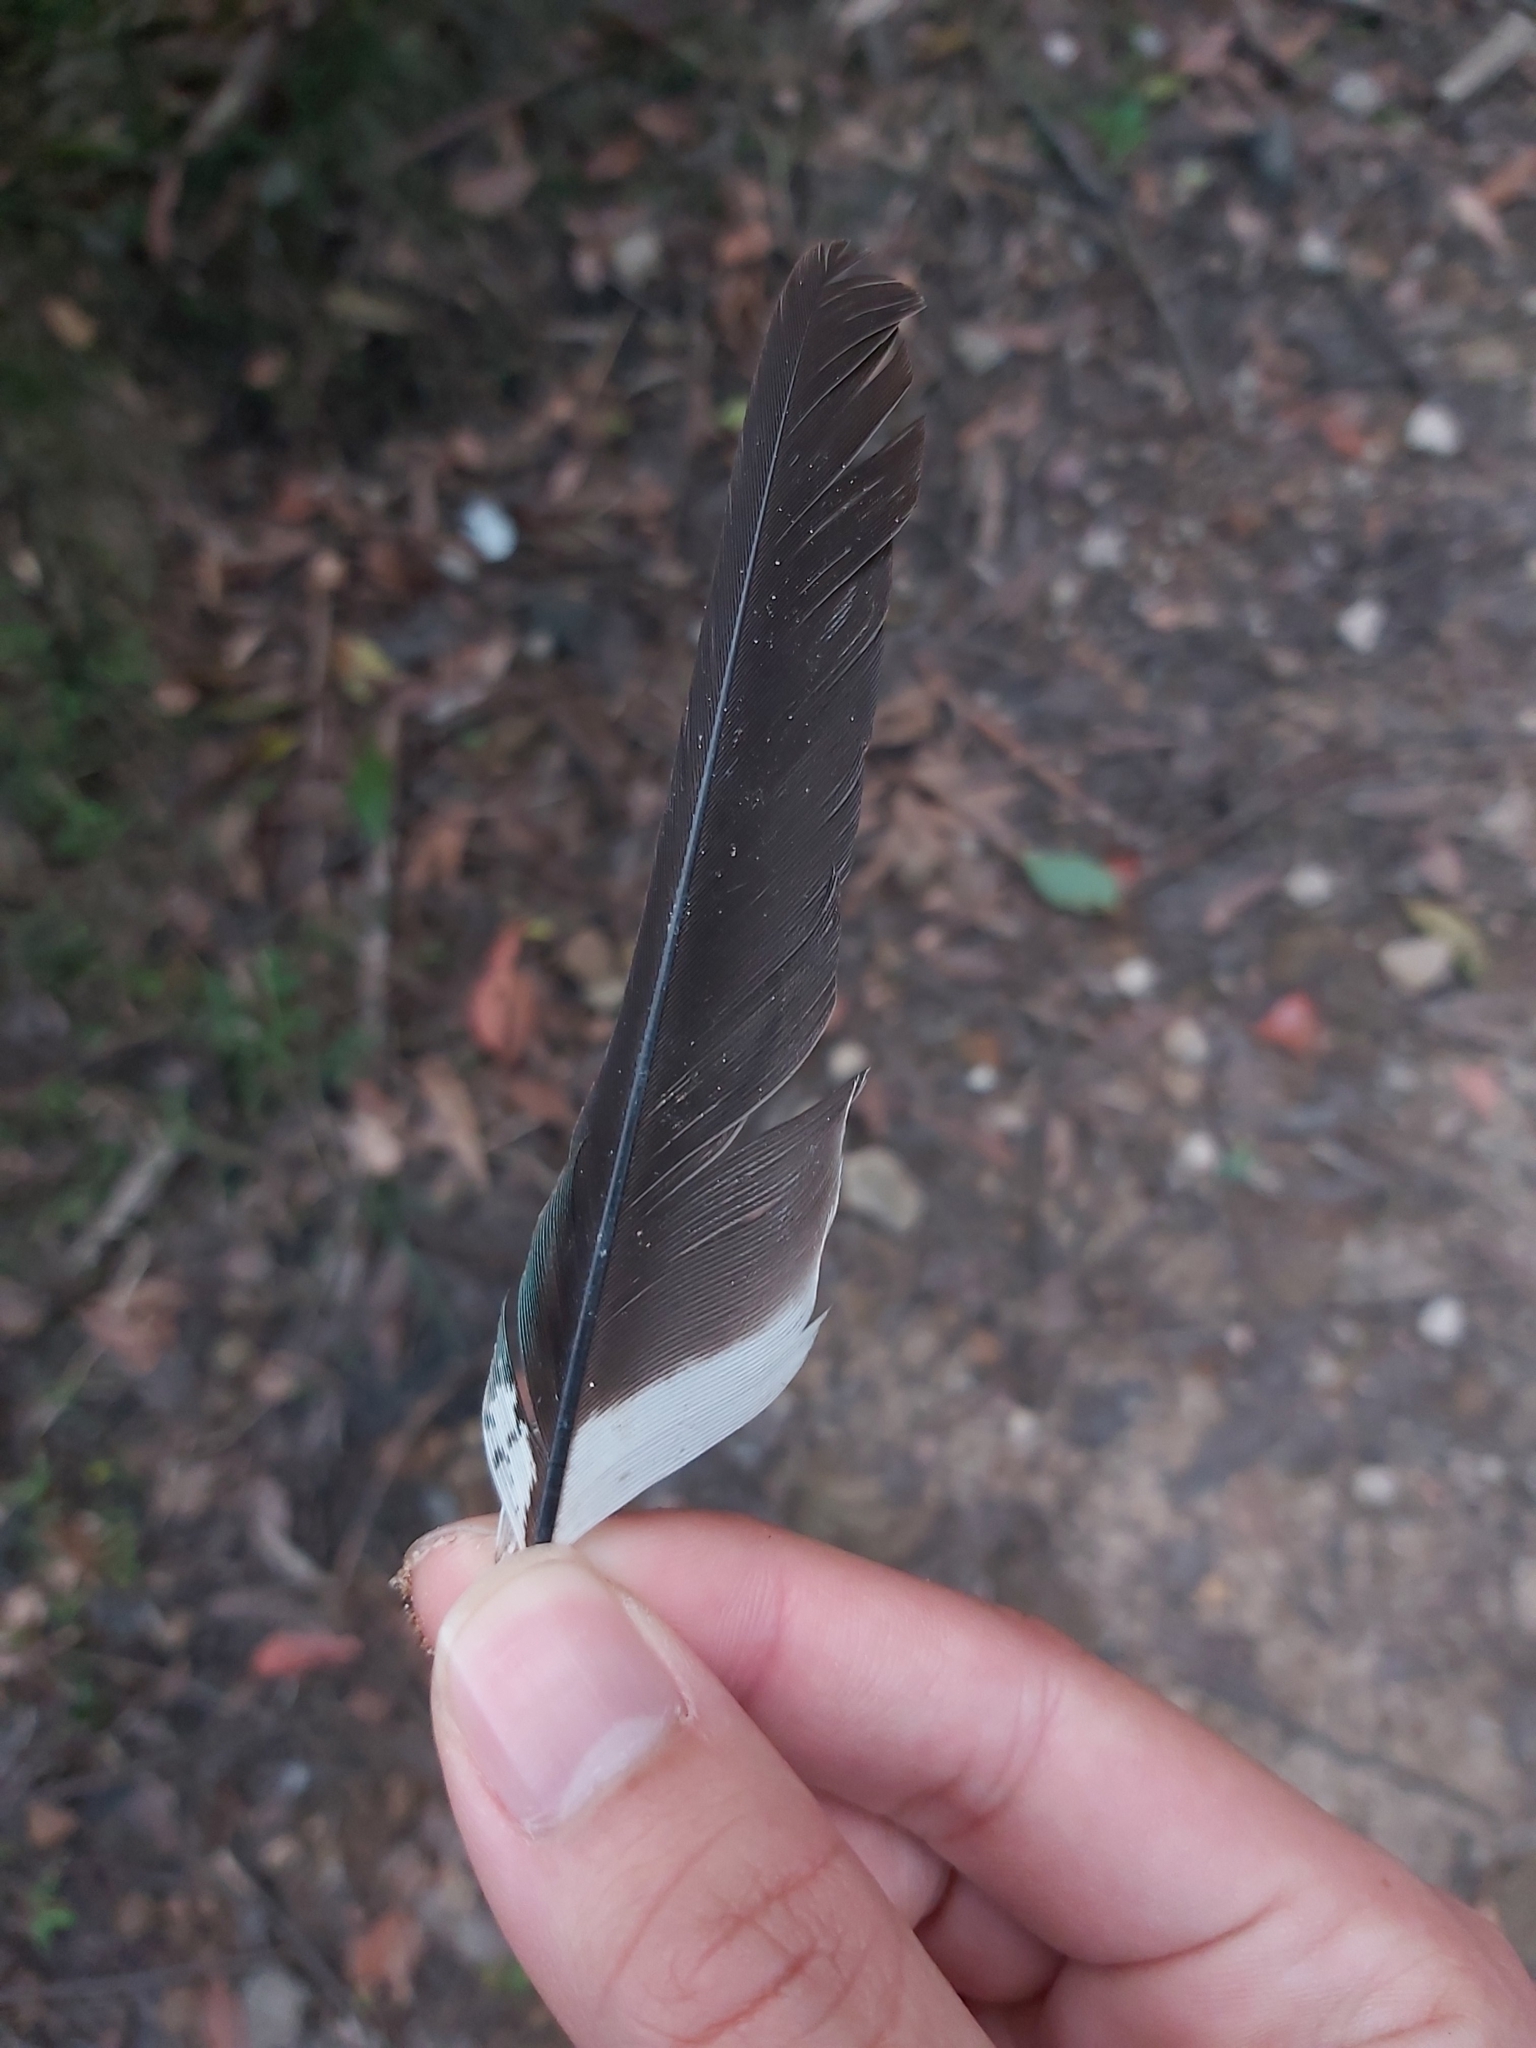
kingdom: Animalia
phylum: Chordata
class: Aves
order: Coraciiformes
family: Alcedinidae
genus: Dacelo
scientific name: Dacelo novaeguineae
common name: Laughing kookaburra
